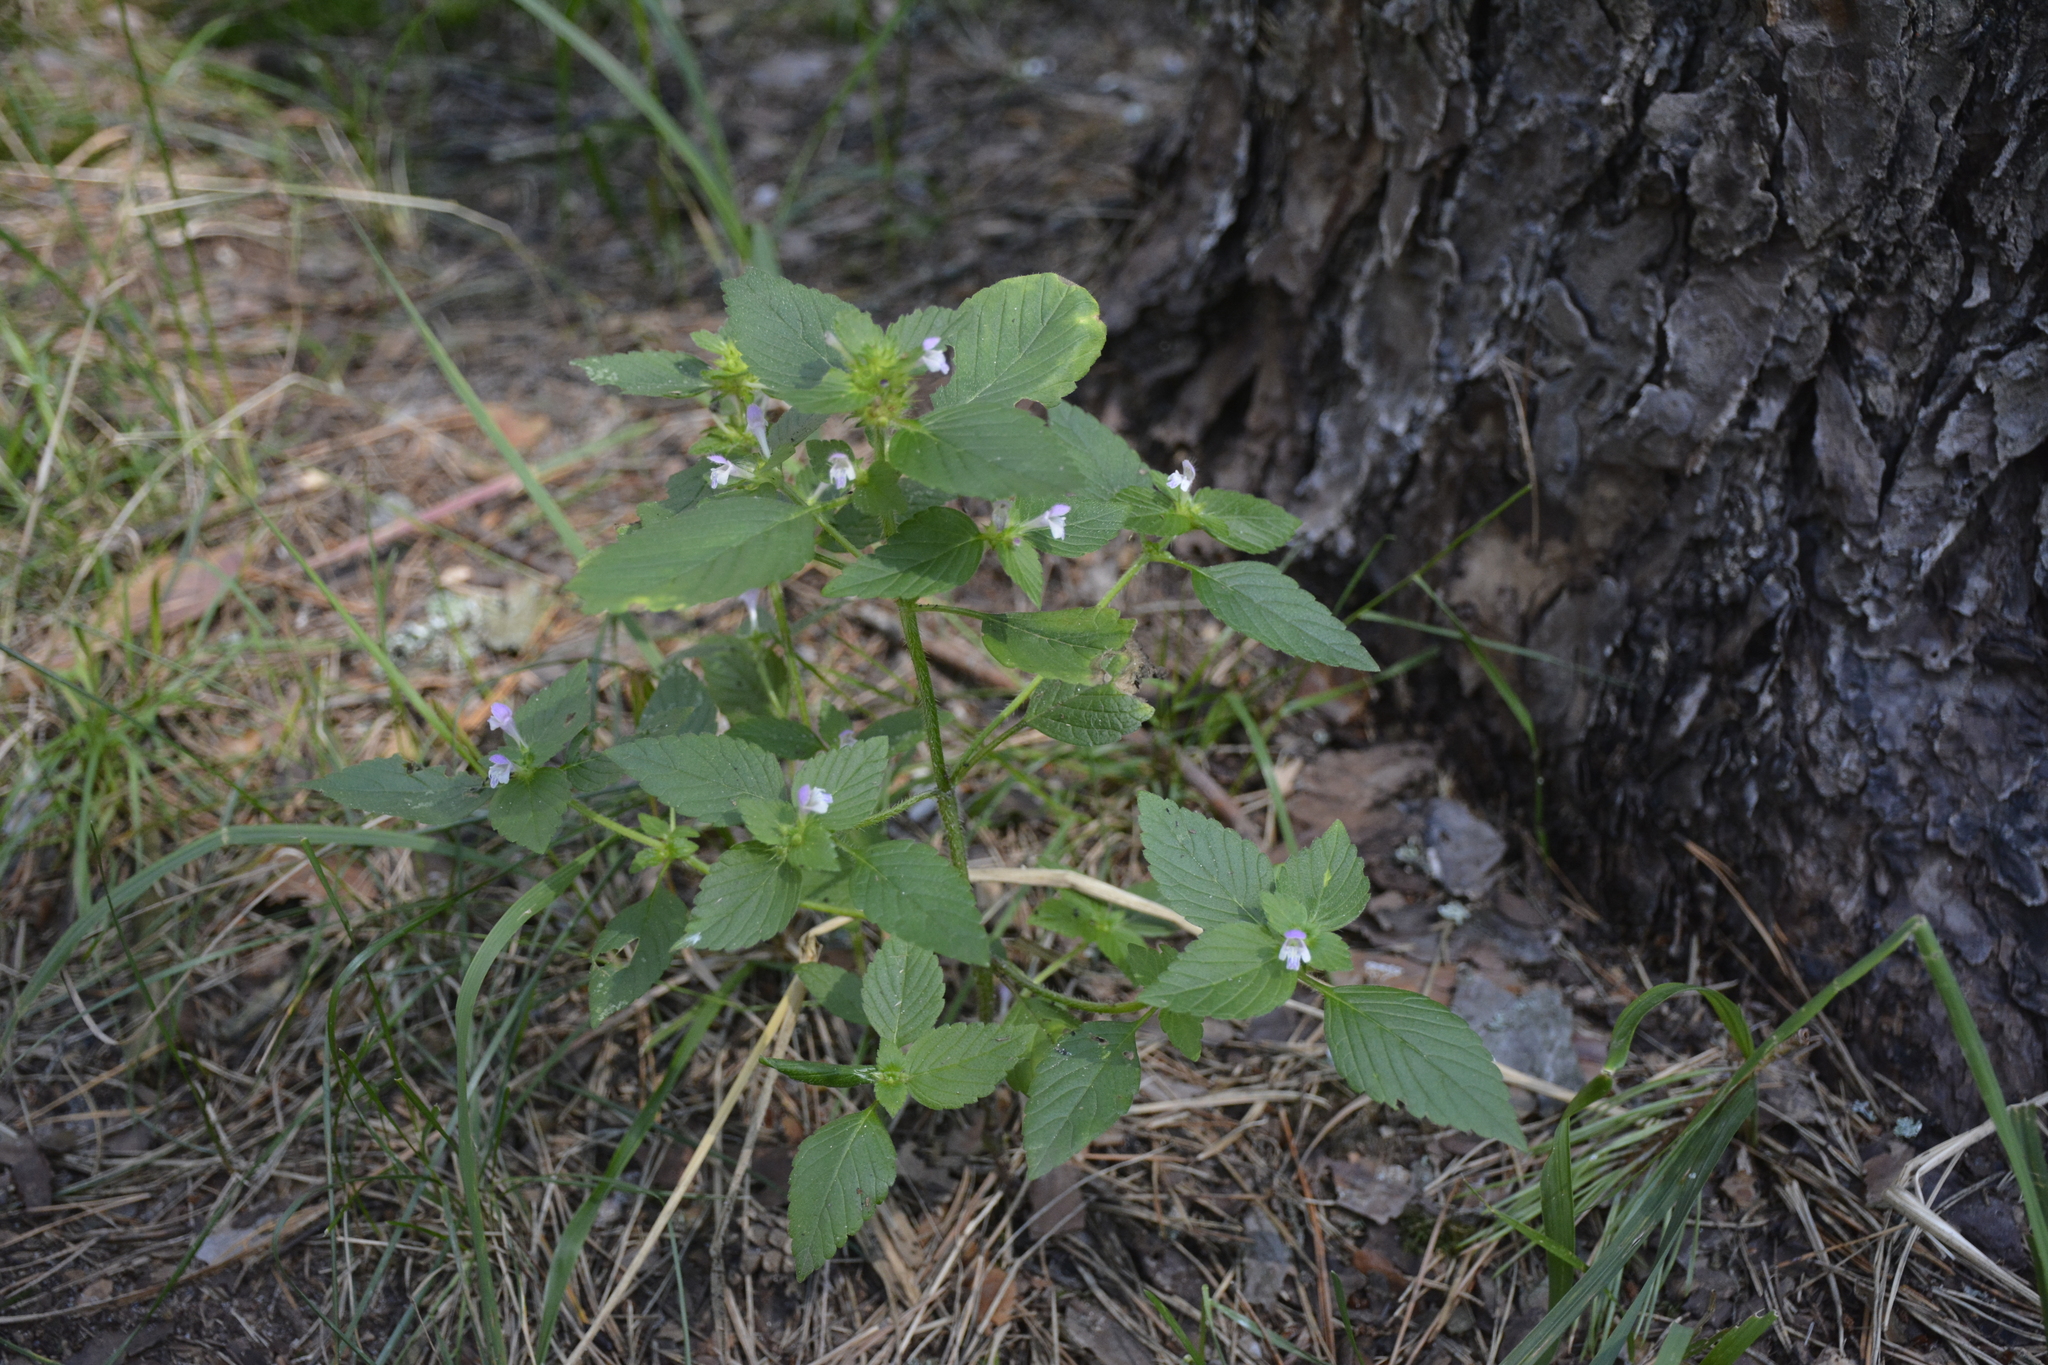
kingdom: Plantae
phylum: Tracheophyta
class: Magnoliopsida
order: Lamiales
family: Lamiaceae
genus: Galeopsis
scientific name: Galeopsis bifida
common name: Bifid hemp-nettle
